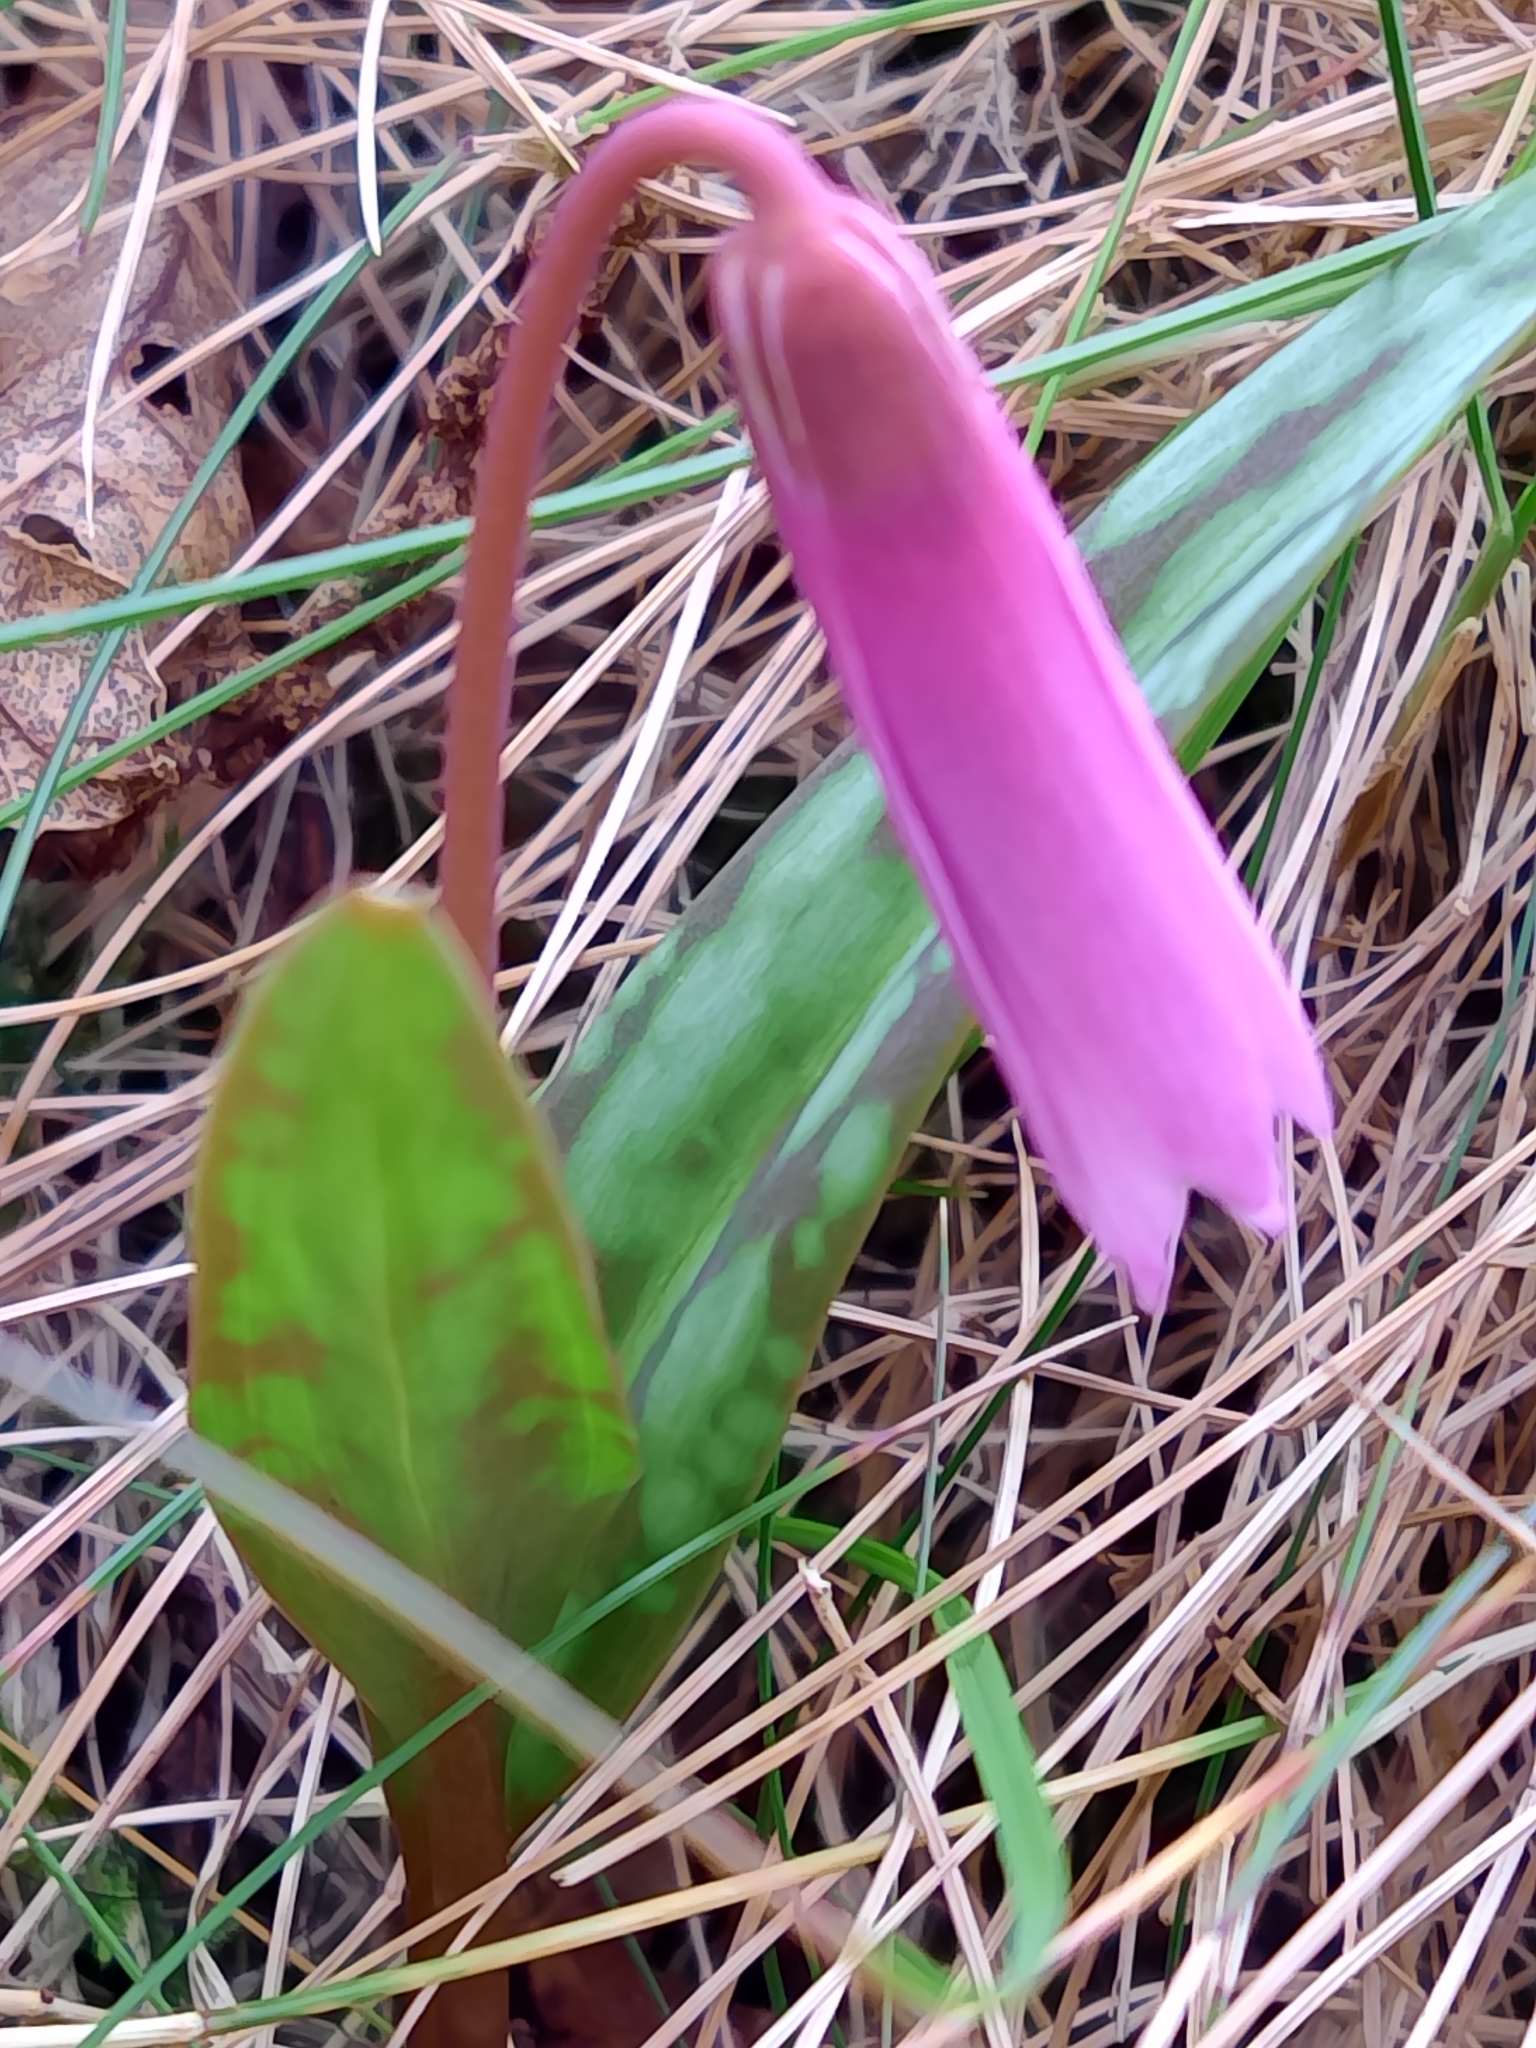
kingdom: Plantae
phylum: Tracheophyta
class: Liliopsida
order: Liliales
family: Liliaceae
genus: Erythronium
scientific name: Erythronium dens-canis
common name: Dog's-tooth-violet
